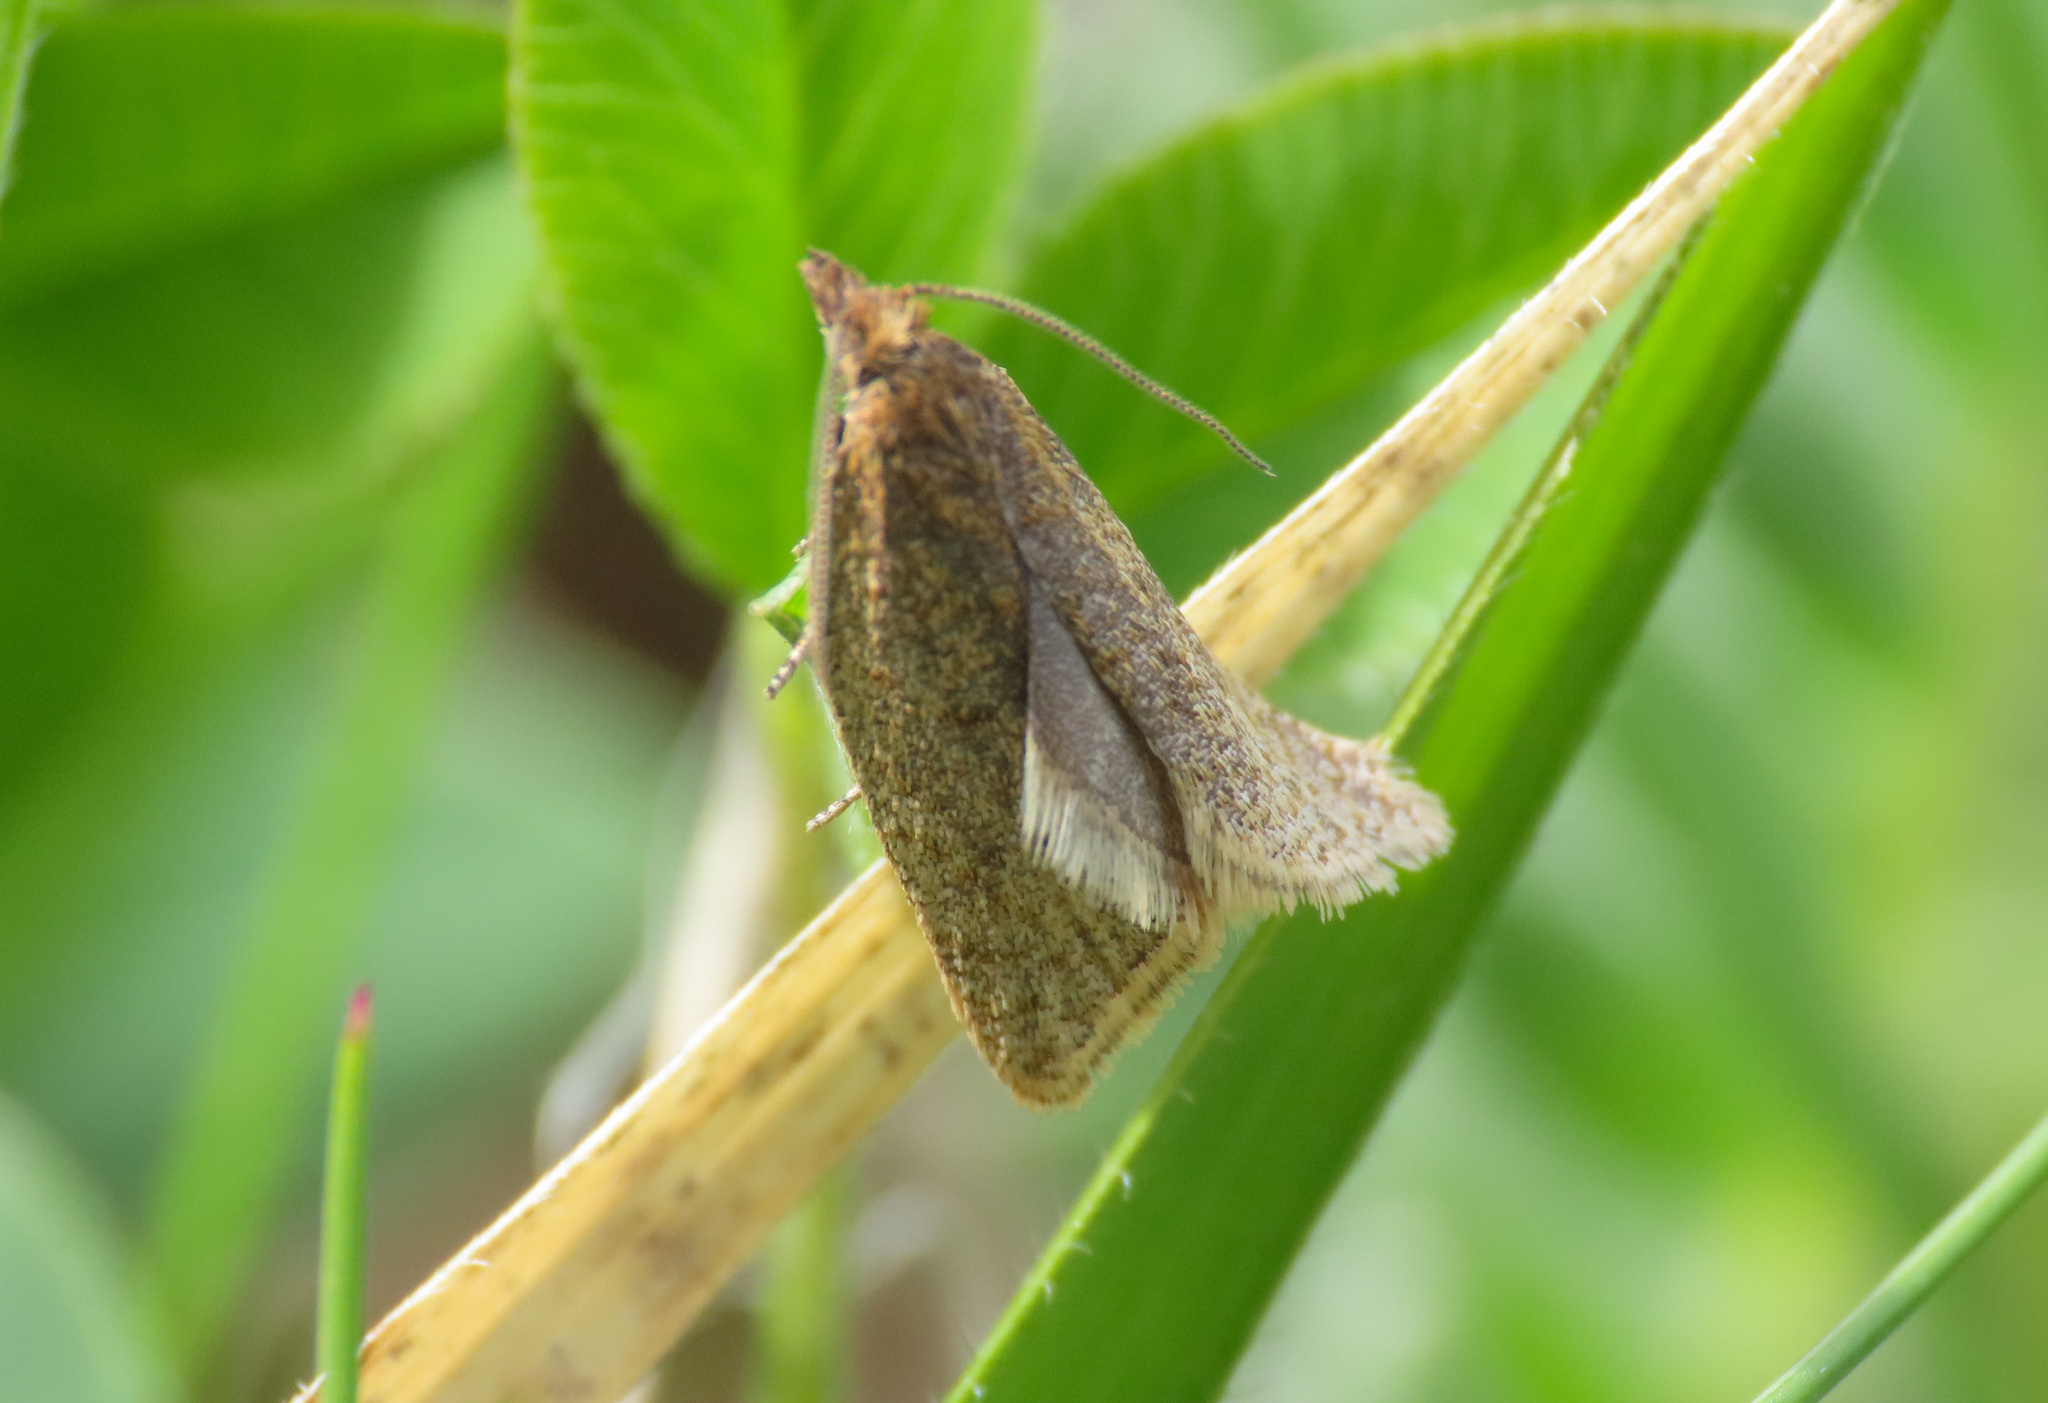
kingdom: Animalia
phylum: Arthropoda
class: Insecta
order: Lepidoptera
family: Tortricidae
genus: Clepsis
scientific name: Clepsis senecionana
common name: Obscure tortrix
